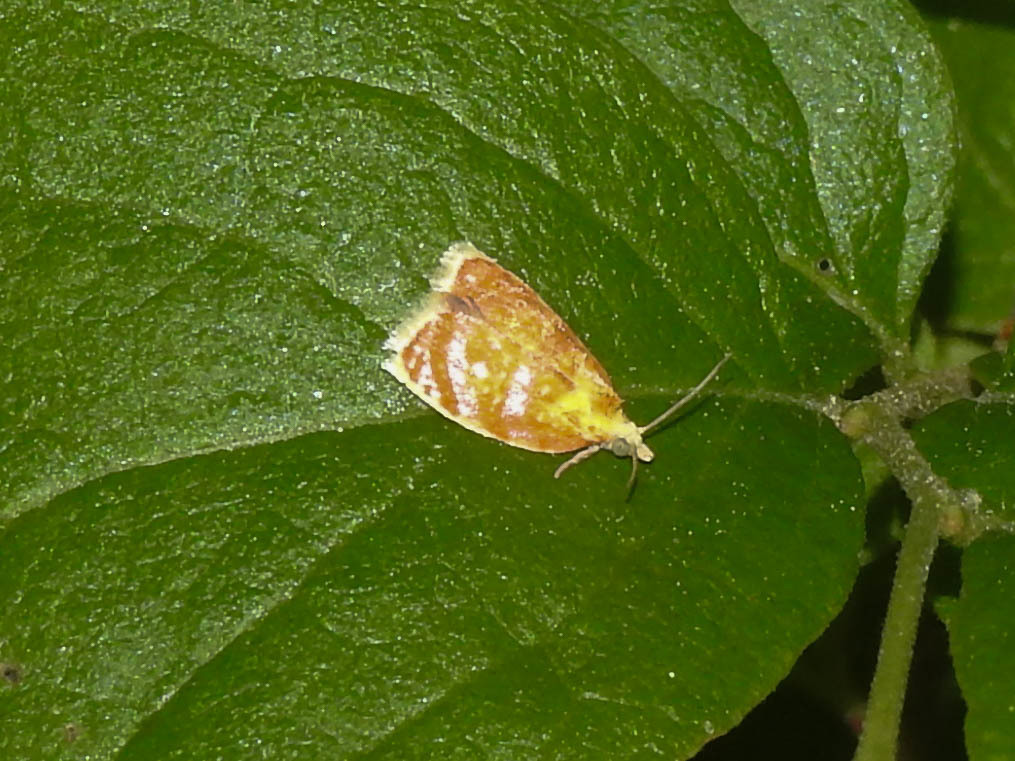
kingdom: Animalia
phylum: Arthropoda
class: Insecta
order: Lepidoptera
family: Tortricidae
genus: Acleris
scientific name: Acleris curvalana
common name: Blueberry leaftier moth
